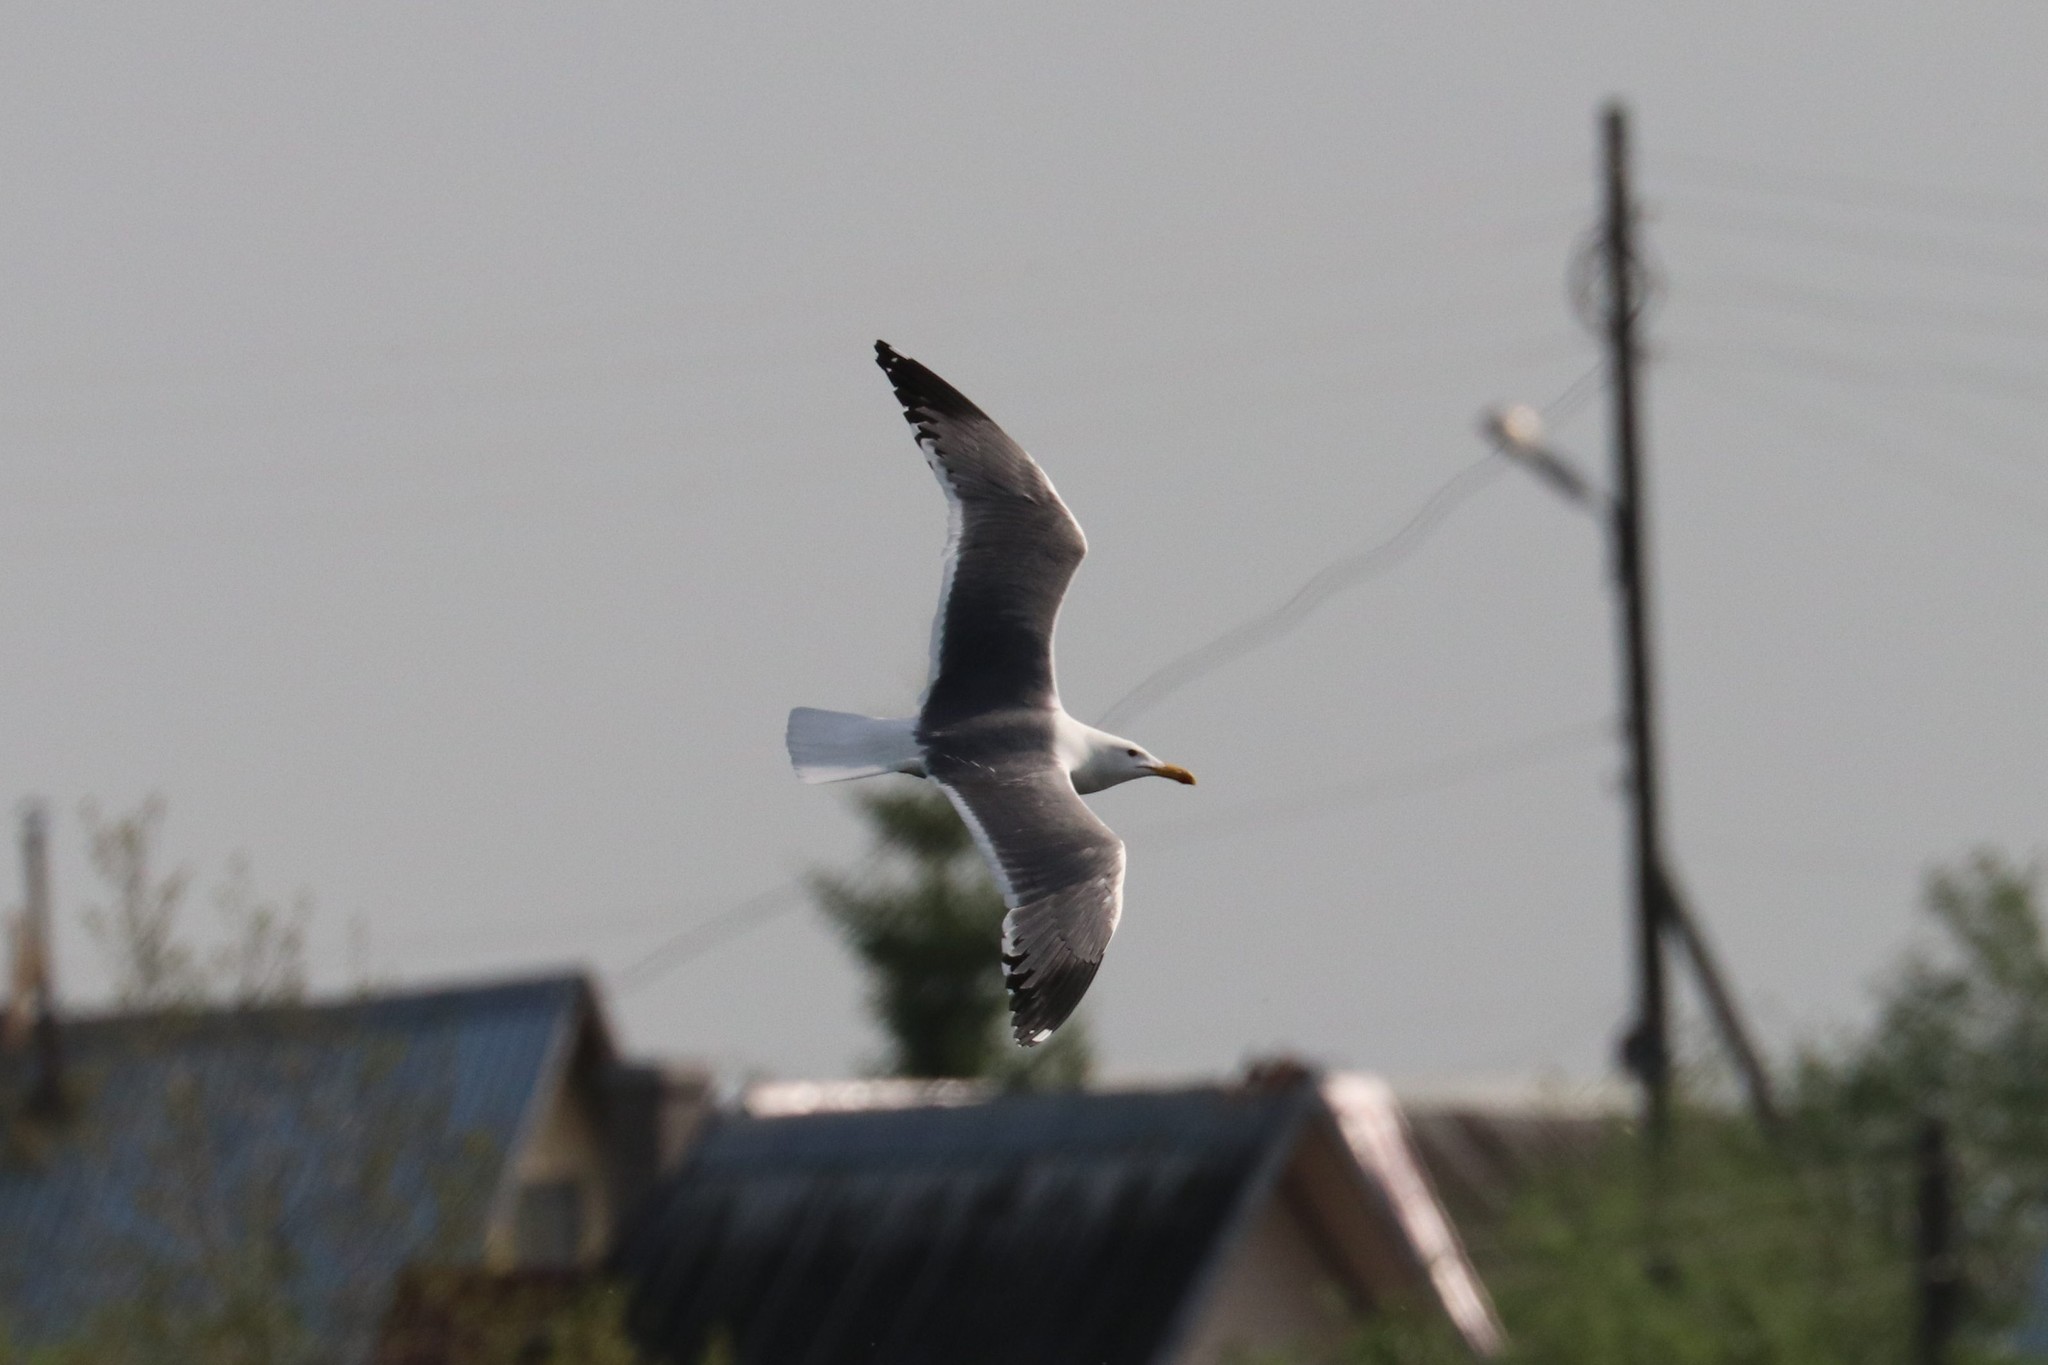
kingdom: Animalia
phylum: Chordata
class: Aves
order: Charadriiformes
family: Laridae
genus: Larus
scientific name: Larus fuscus
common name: Lesser black-backed gull
